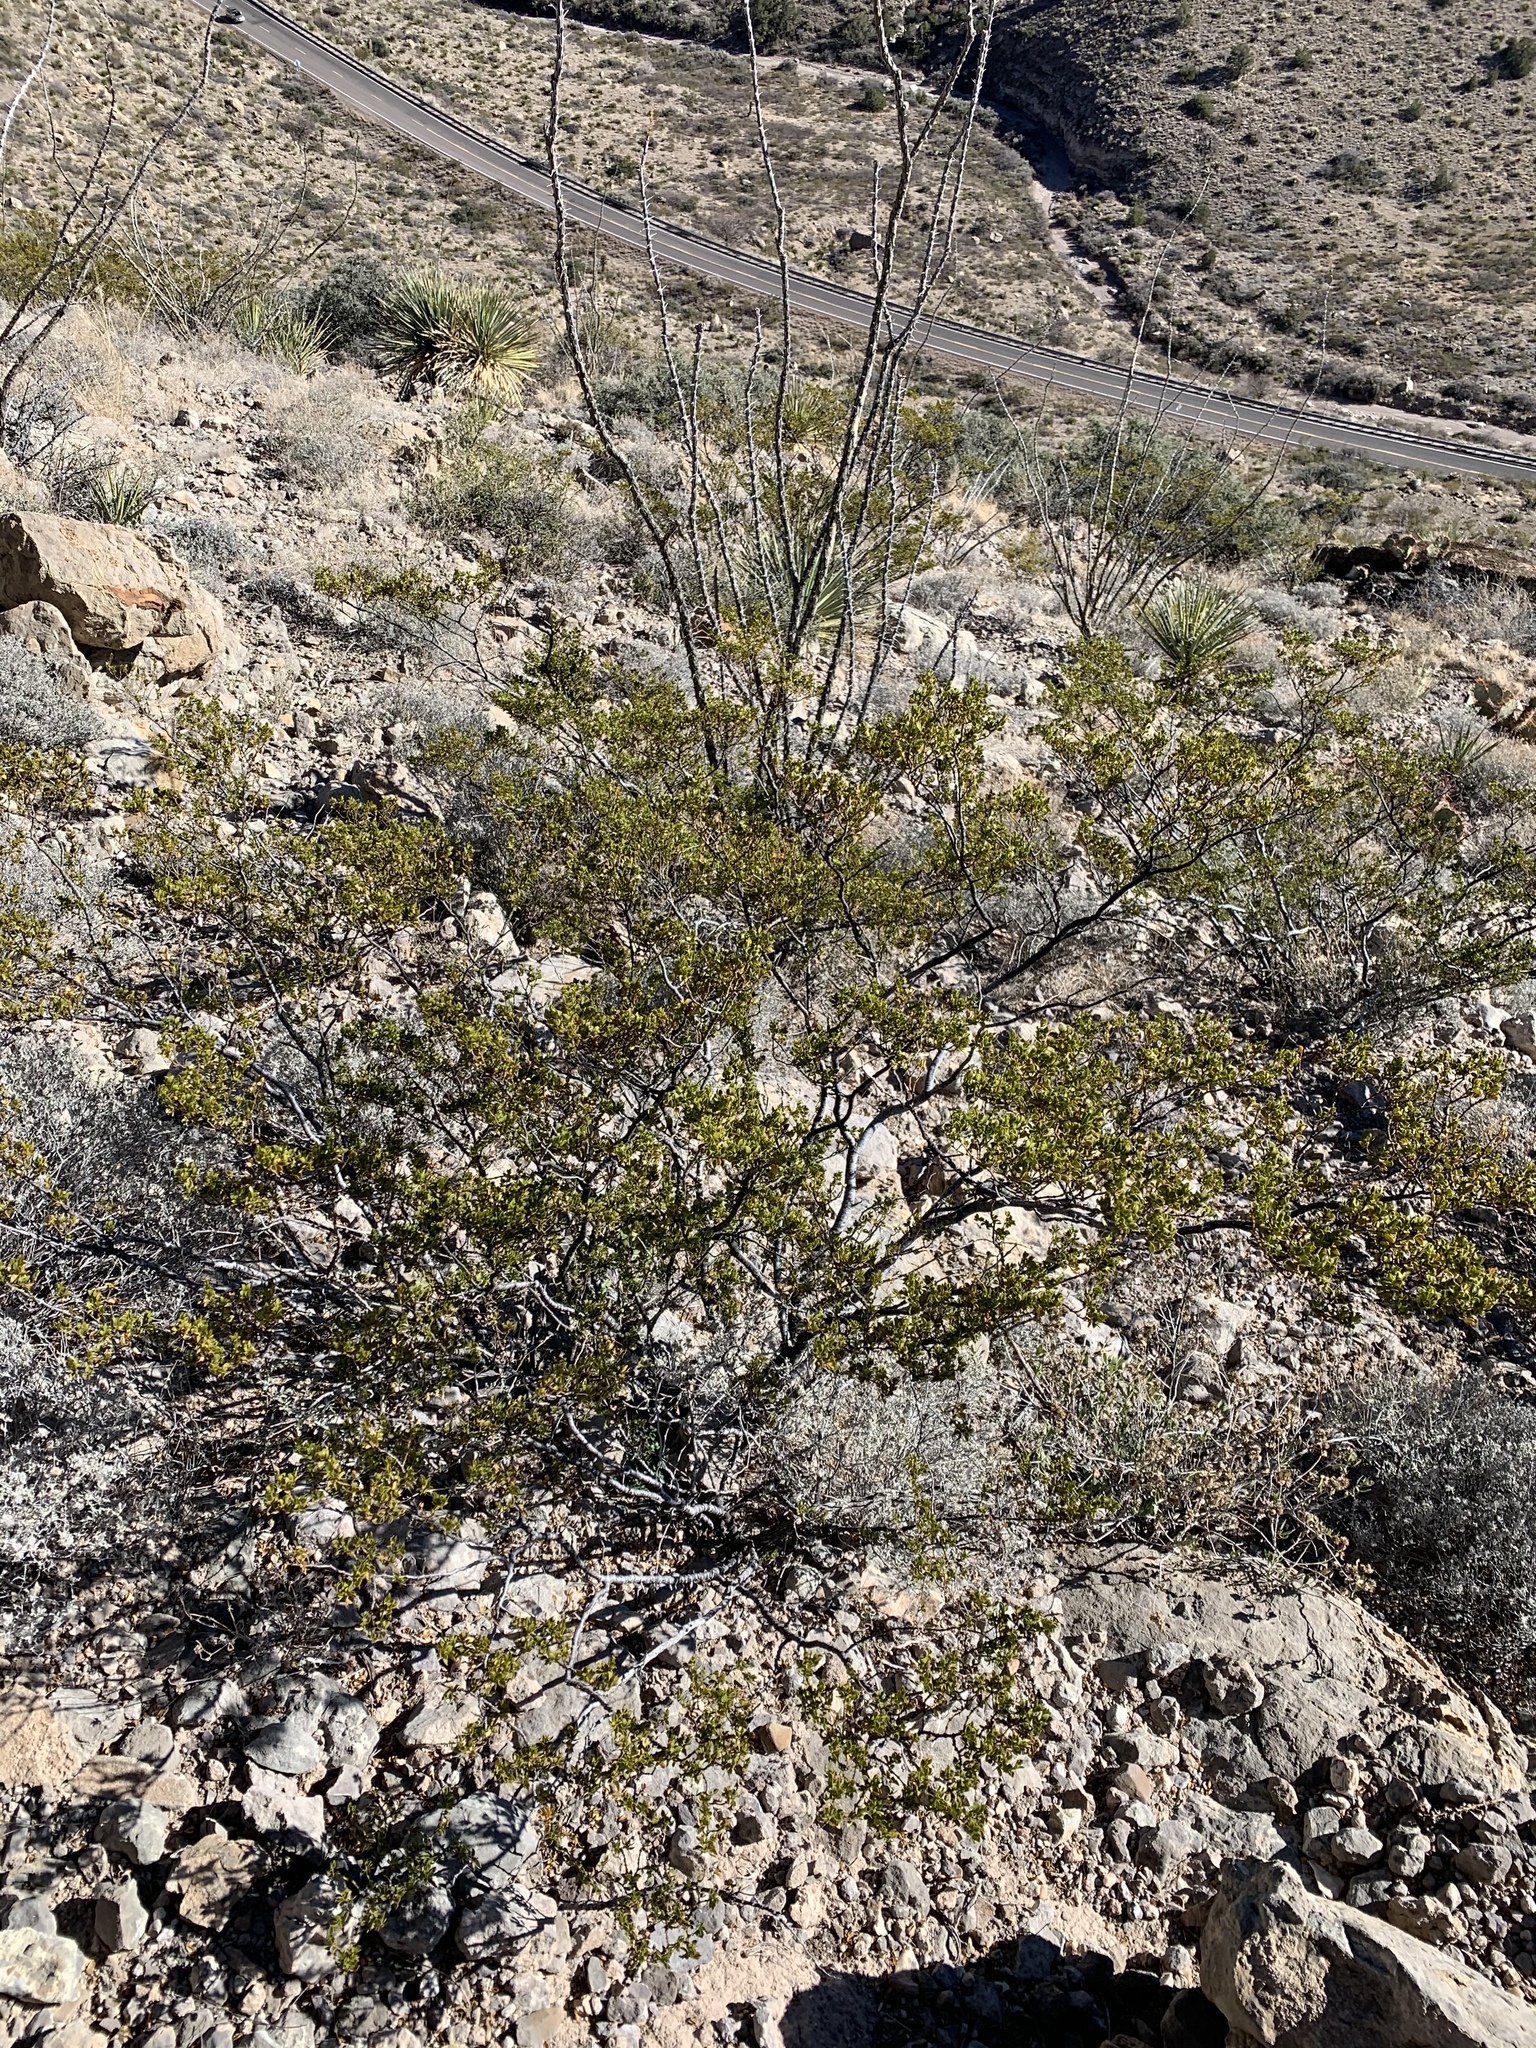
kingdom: Plantae
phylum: Tracheophyta
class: Magnoliopsida
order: Zygophyllales
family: Zygophyllaceae
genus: Larrea
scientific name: Larrea tridentata
